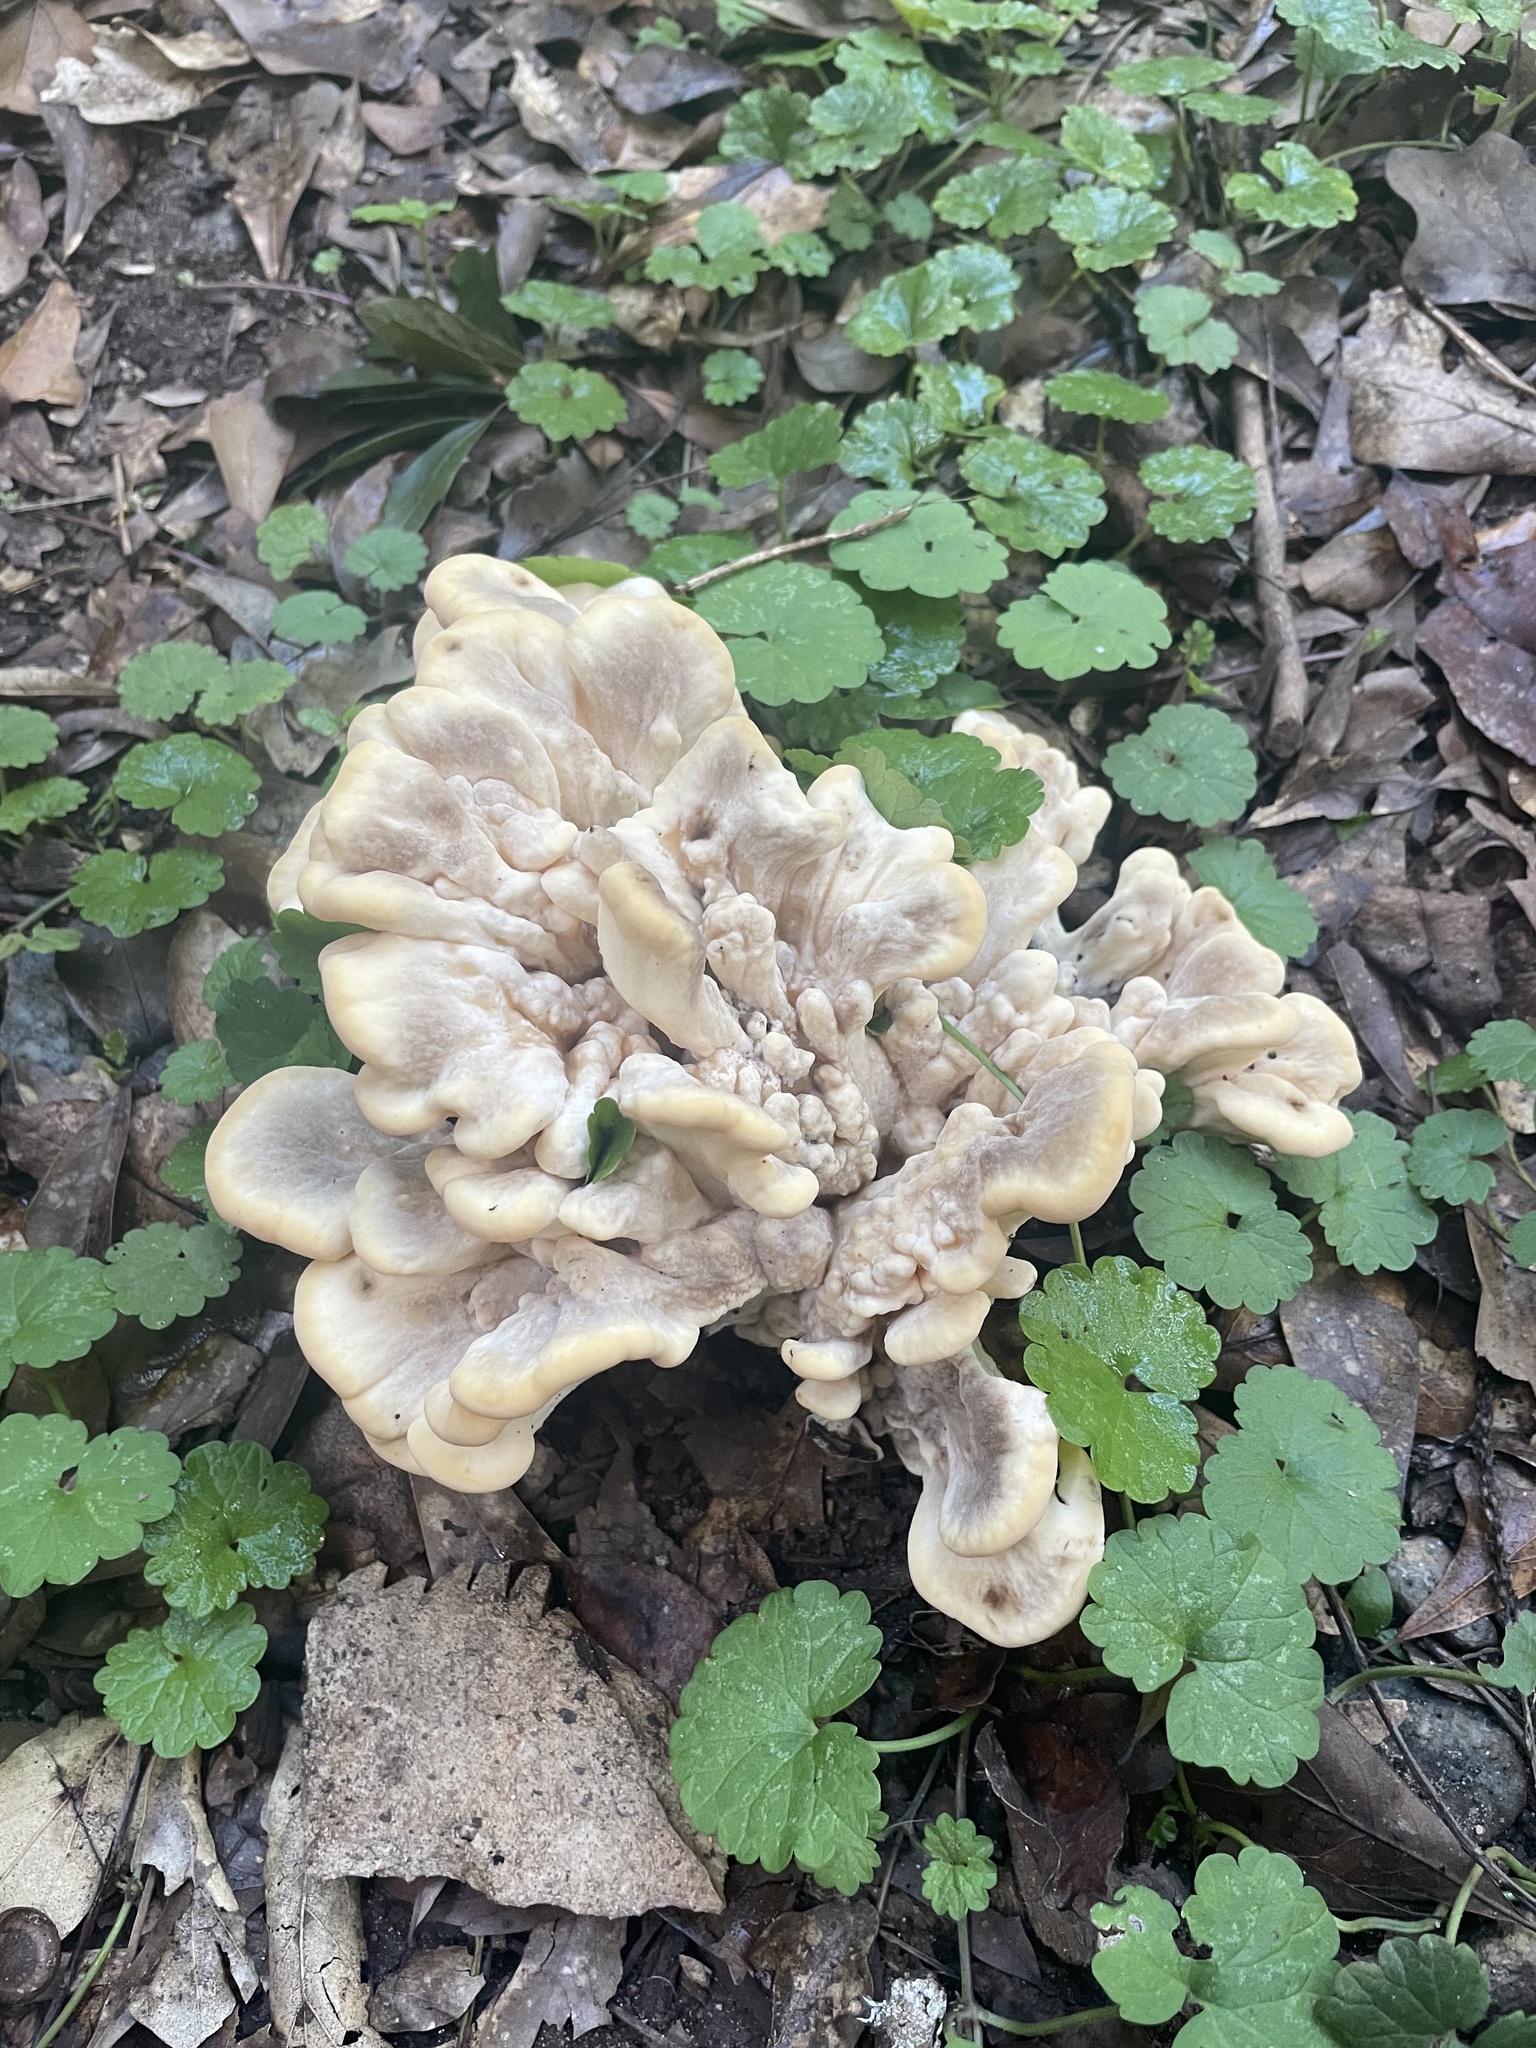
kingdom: Fungi
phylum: Basidiomycota
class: Agaricomycetes
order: Polyporales
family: Meripilaceae
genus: Meripilus
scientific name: Meripilus sumstinei
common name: Black-staining polypore
